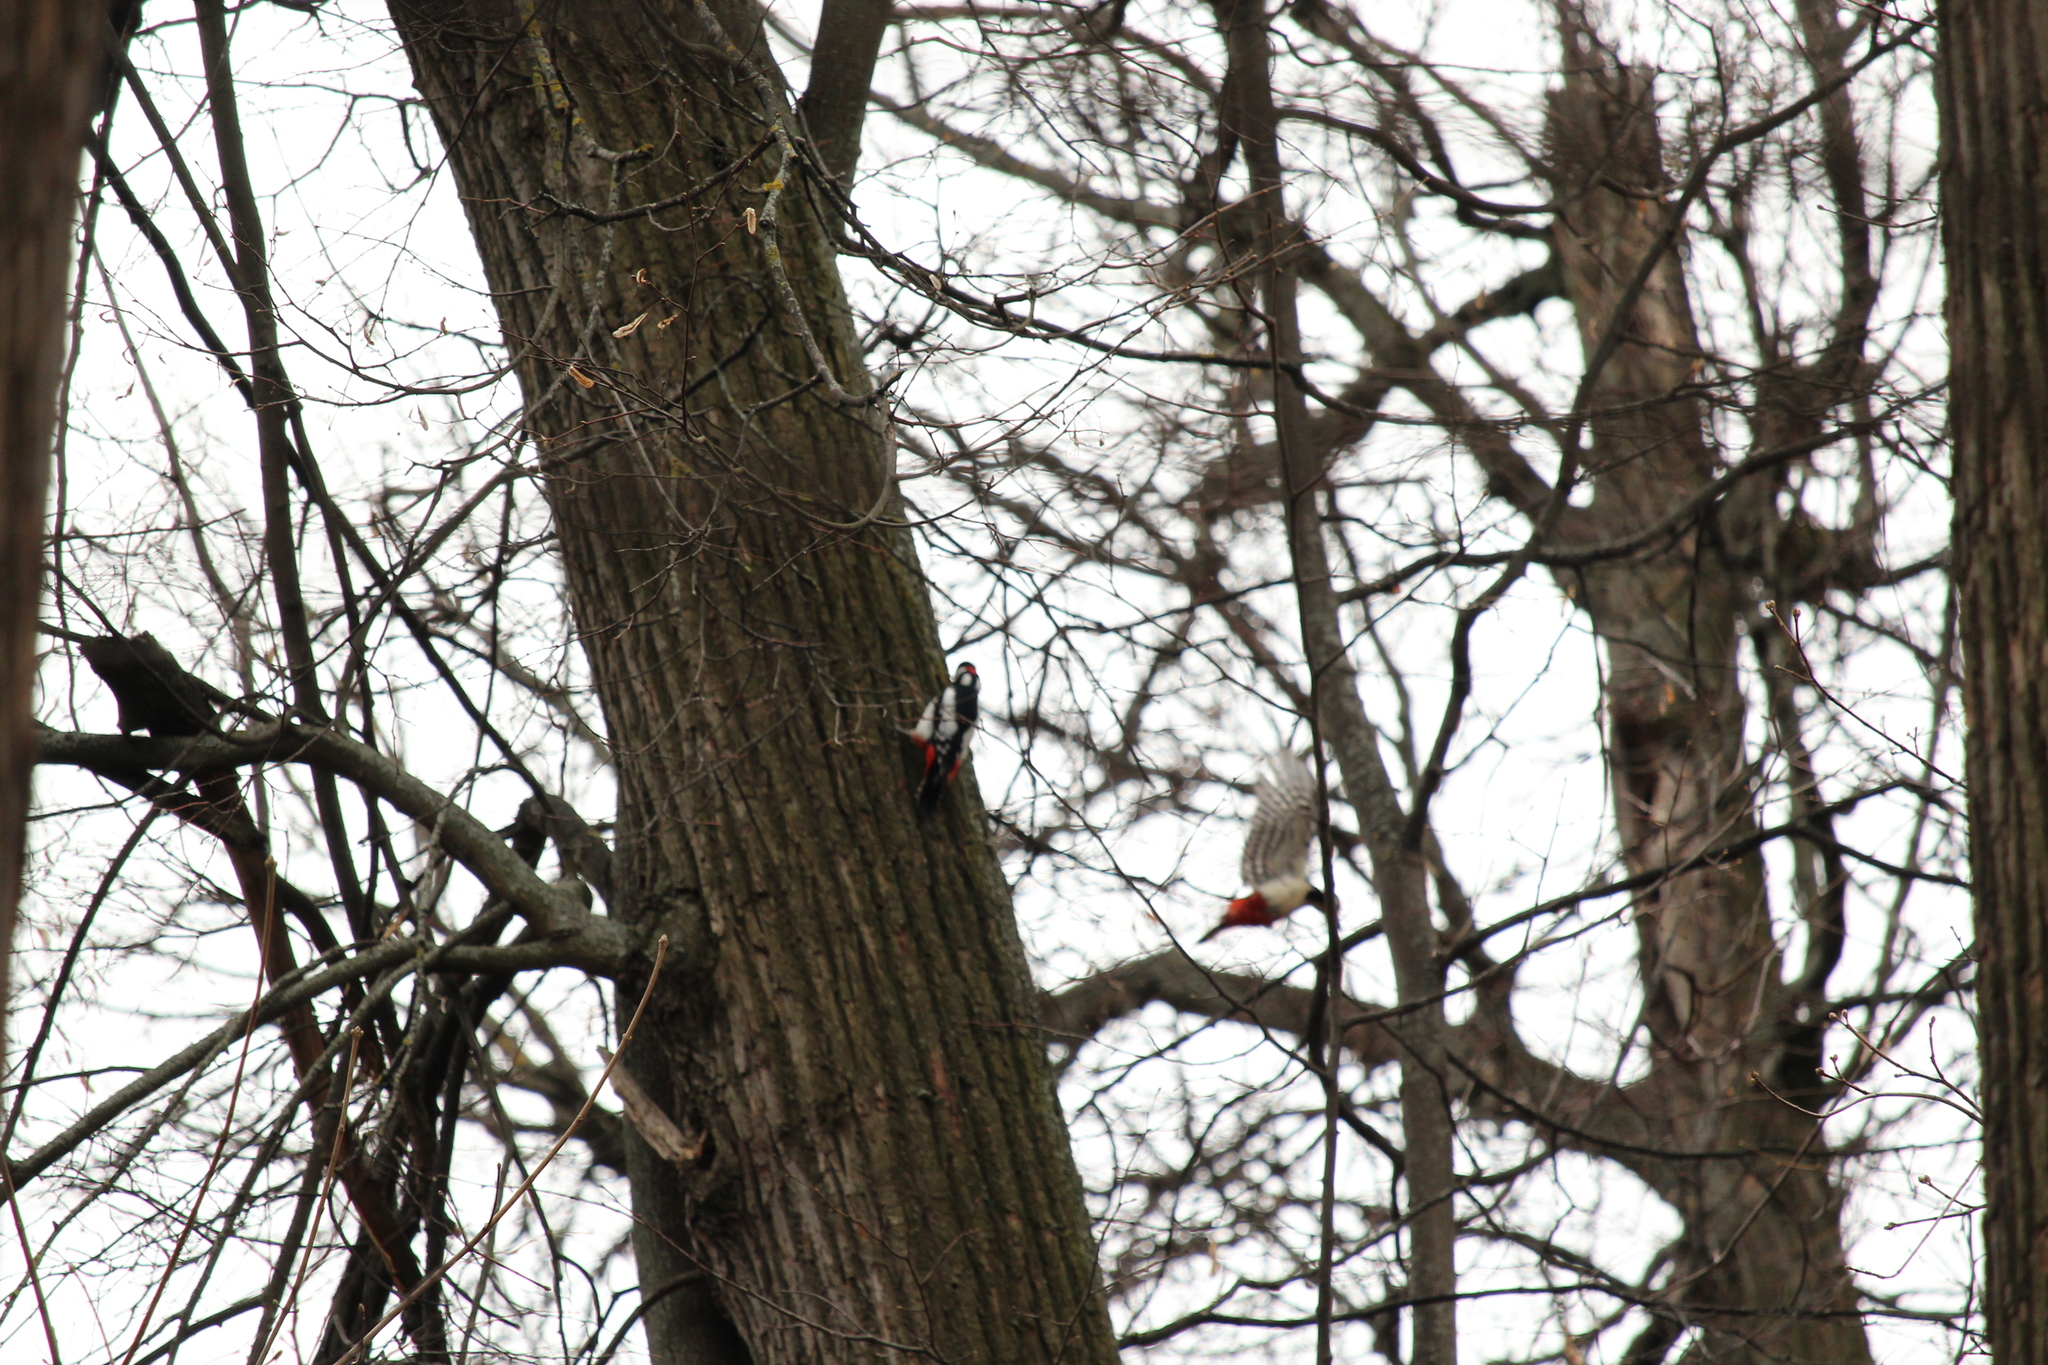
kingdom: Animalia
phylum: Chordata
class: Aves
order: Piciformes
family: Picidae
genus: Dendrocopos
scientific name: Dendrocopos major
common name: Great spotted woodpecker
